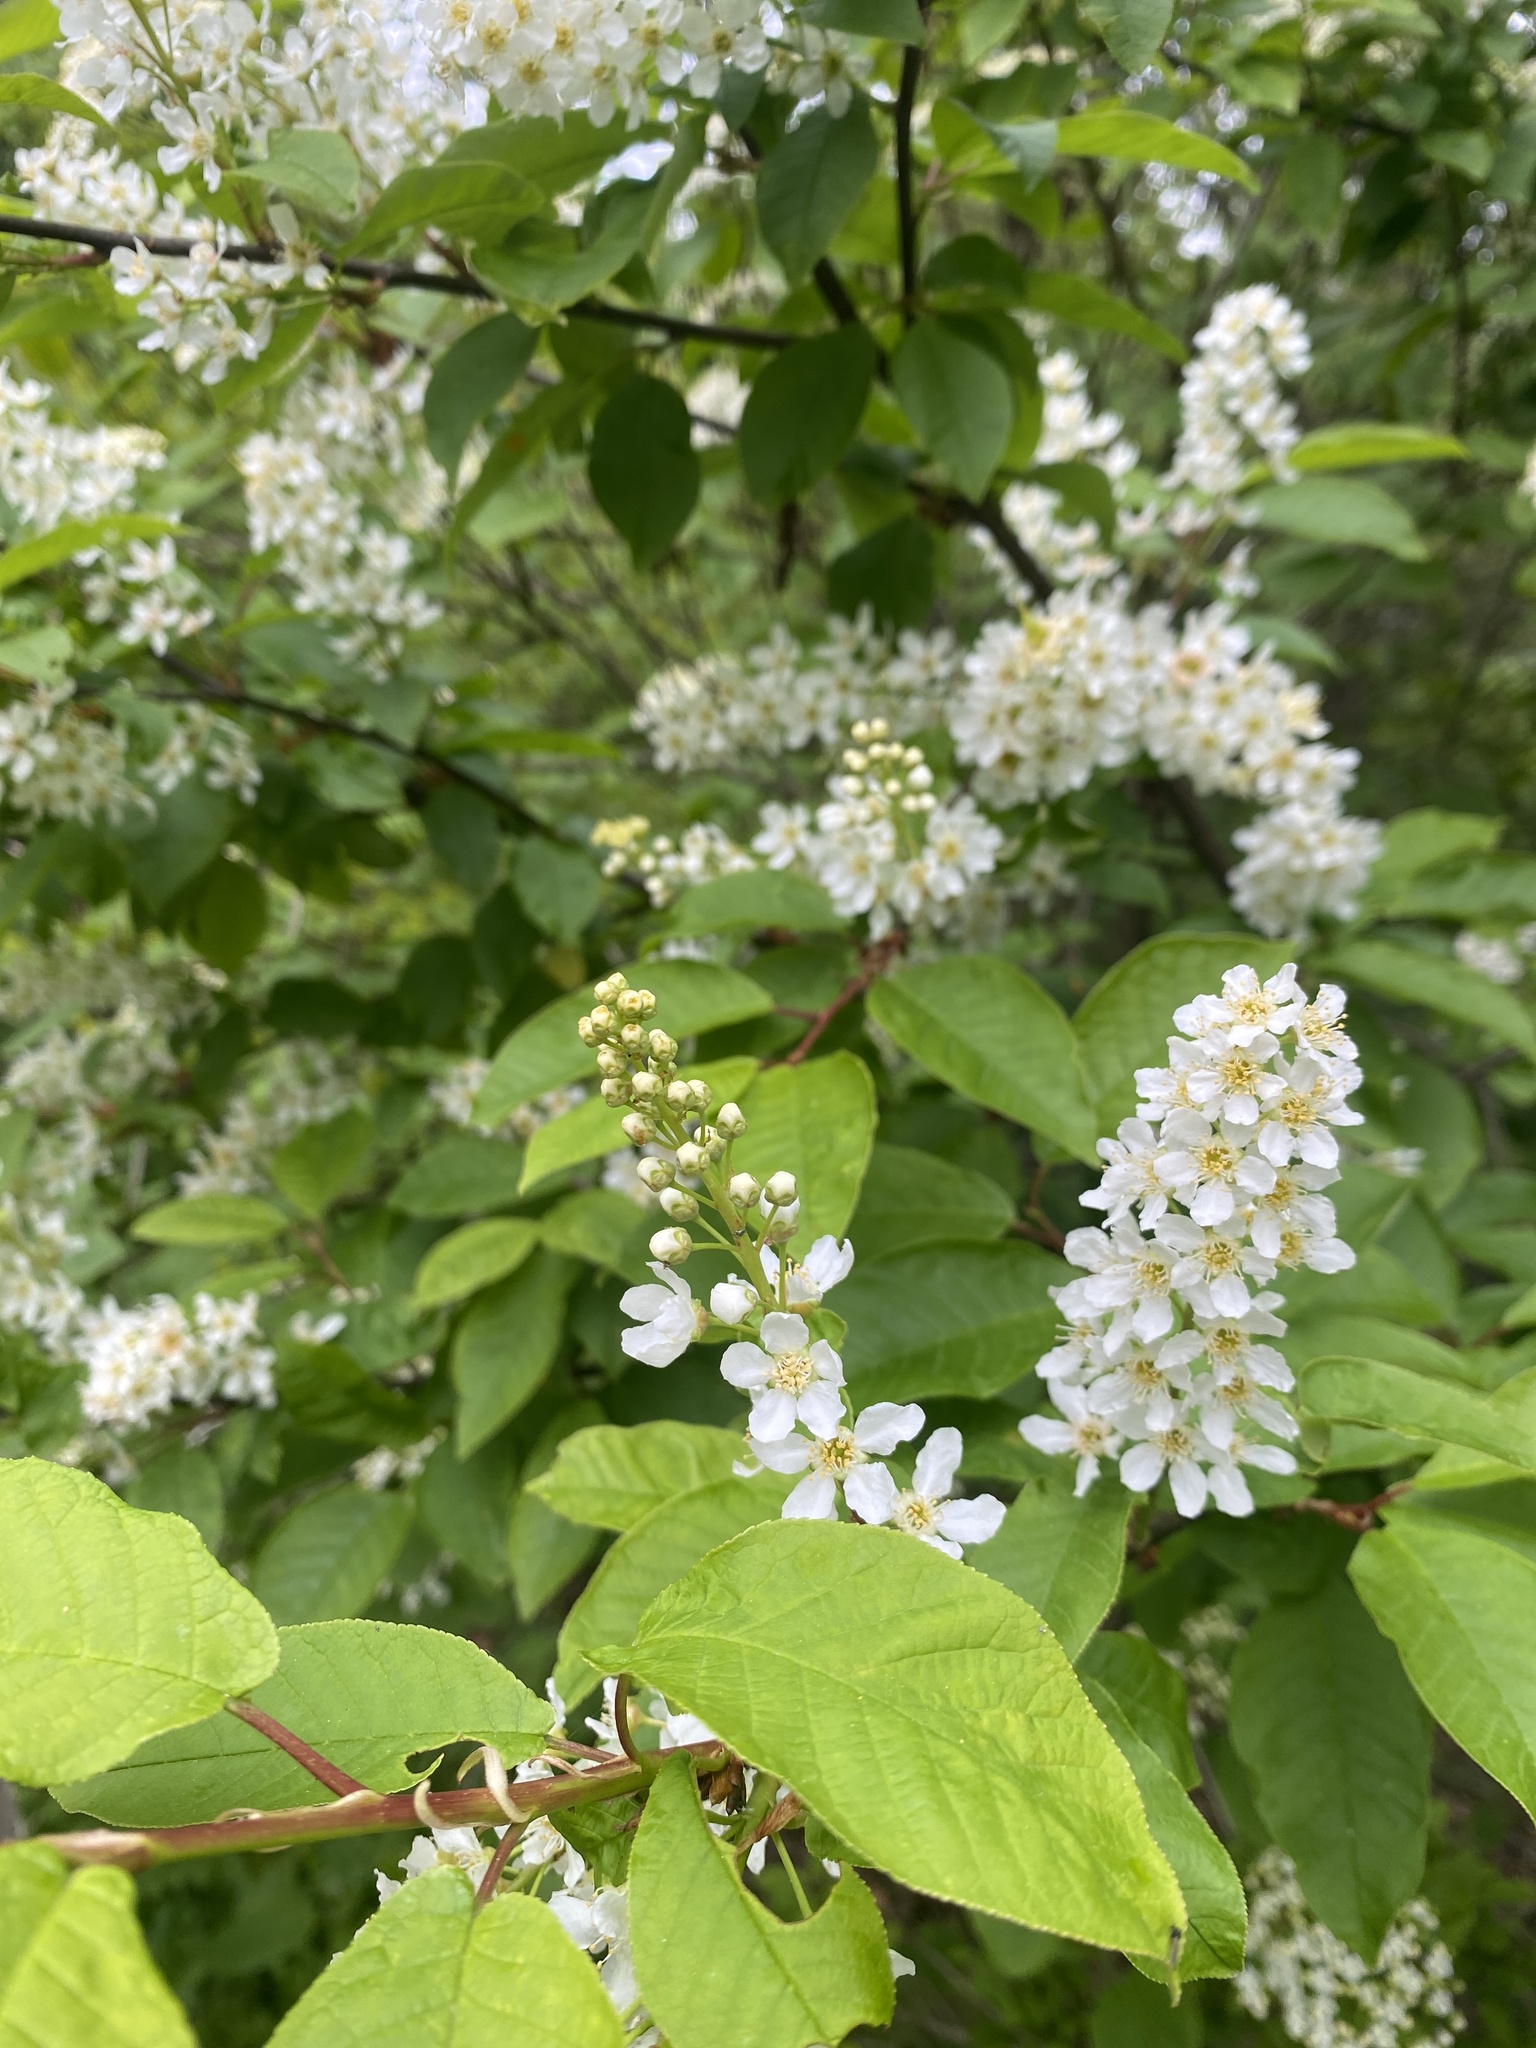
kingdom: Plantae
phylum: Tracheophyta
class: Magnoliopsida
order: Rosales
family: Rosaceae
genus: Prunus
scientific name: Prunus padus
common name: Bird cherry
